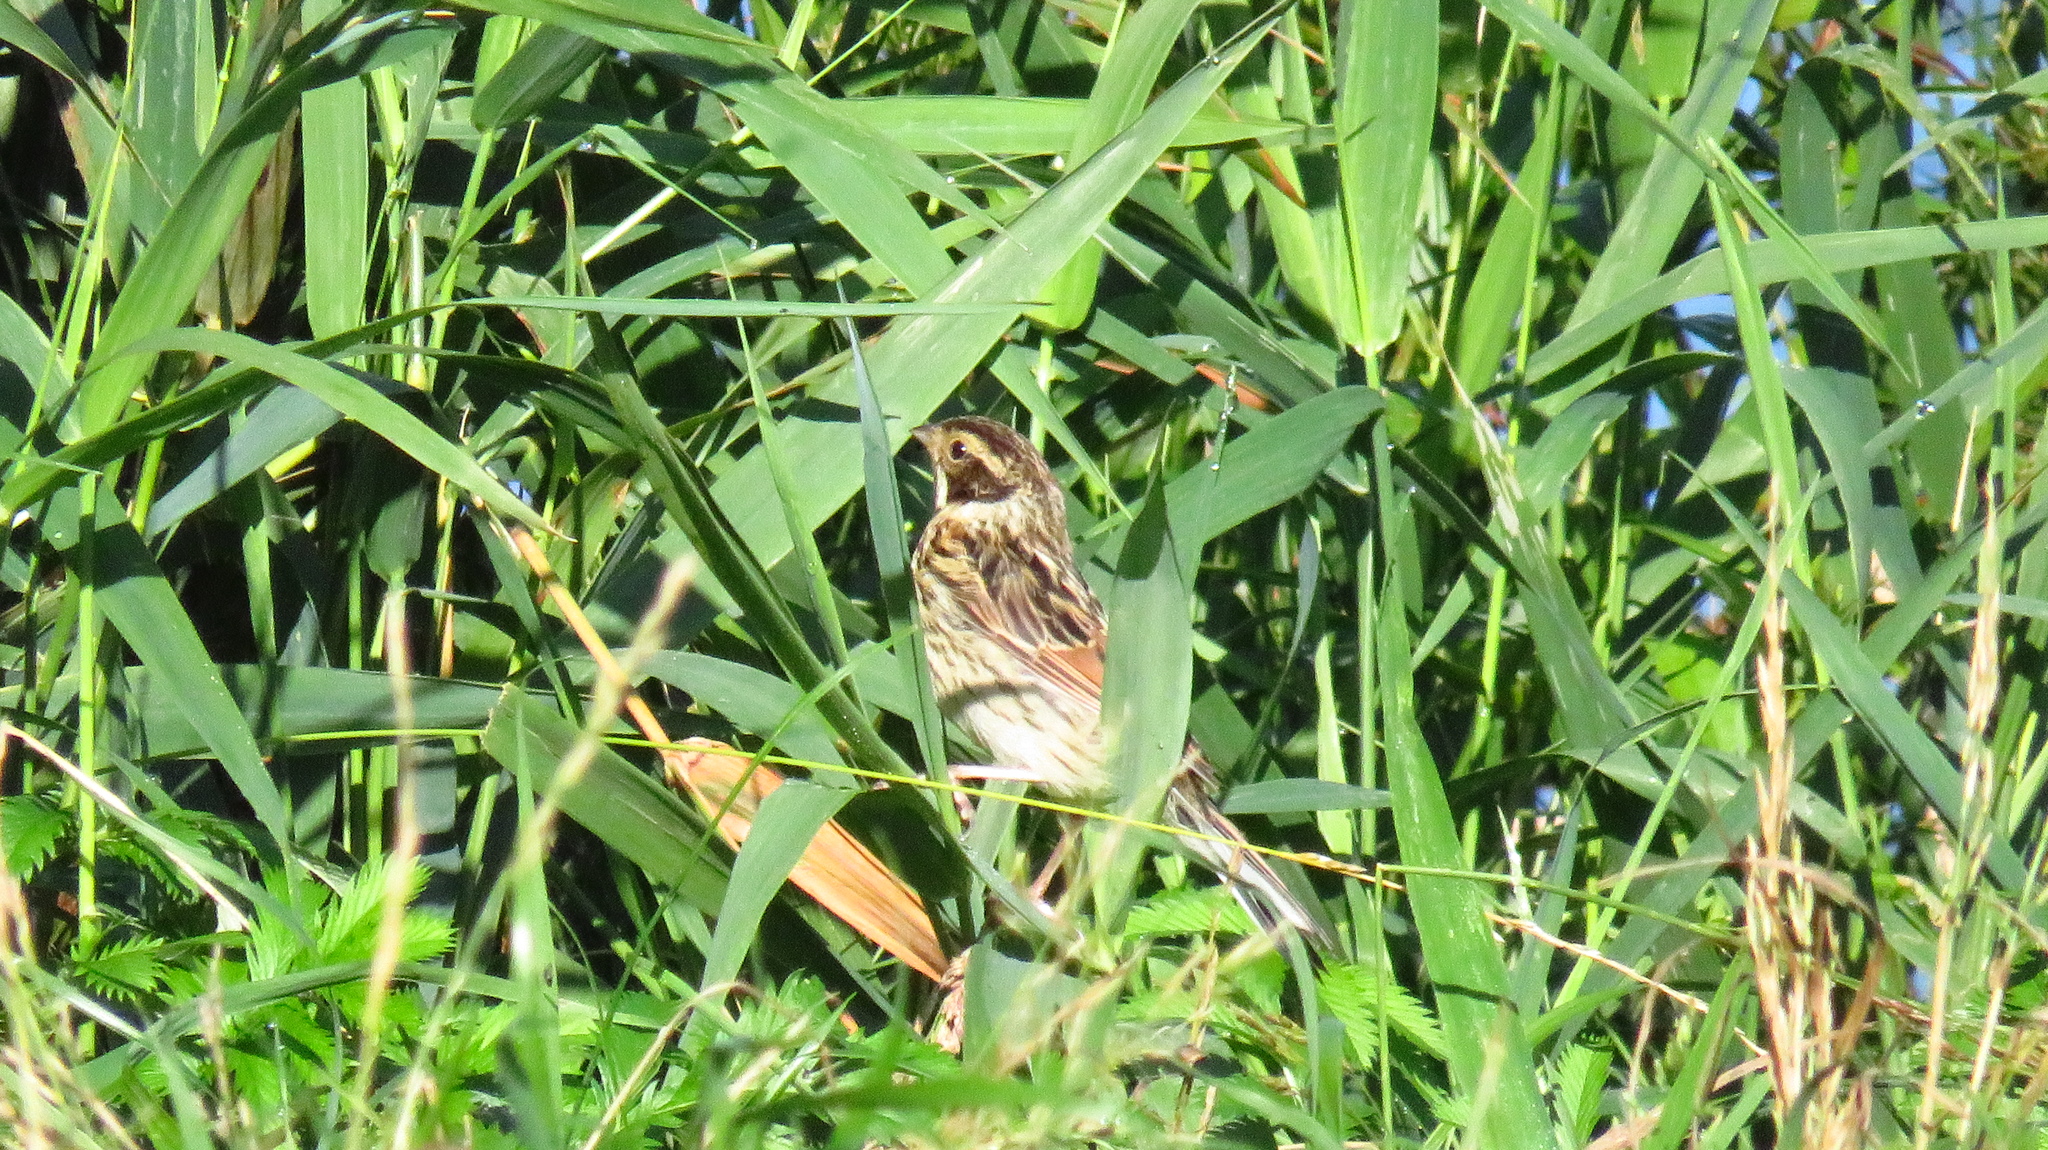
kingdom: Animalia
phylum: Chordata
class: Aves
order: Passeriformes
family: Emberizidae
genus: Emberiza
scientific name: Emberiza schoeniclus
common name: Reed bunting
